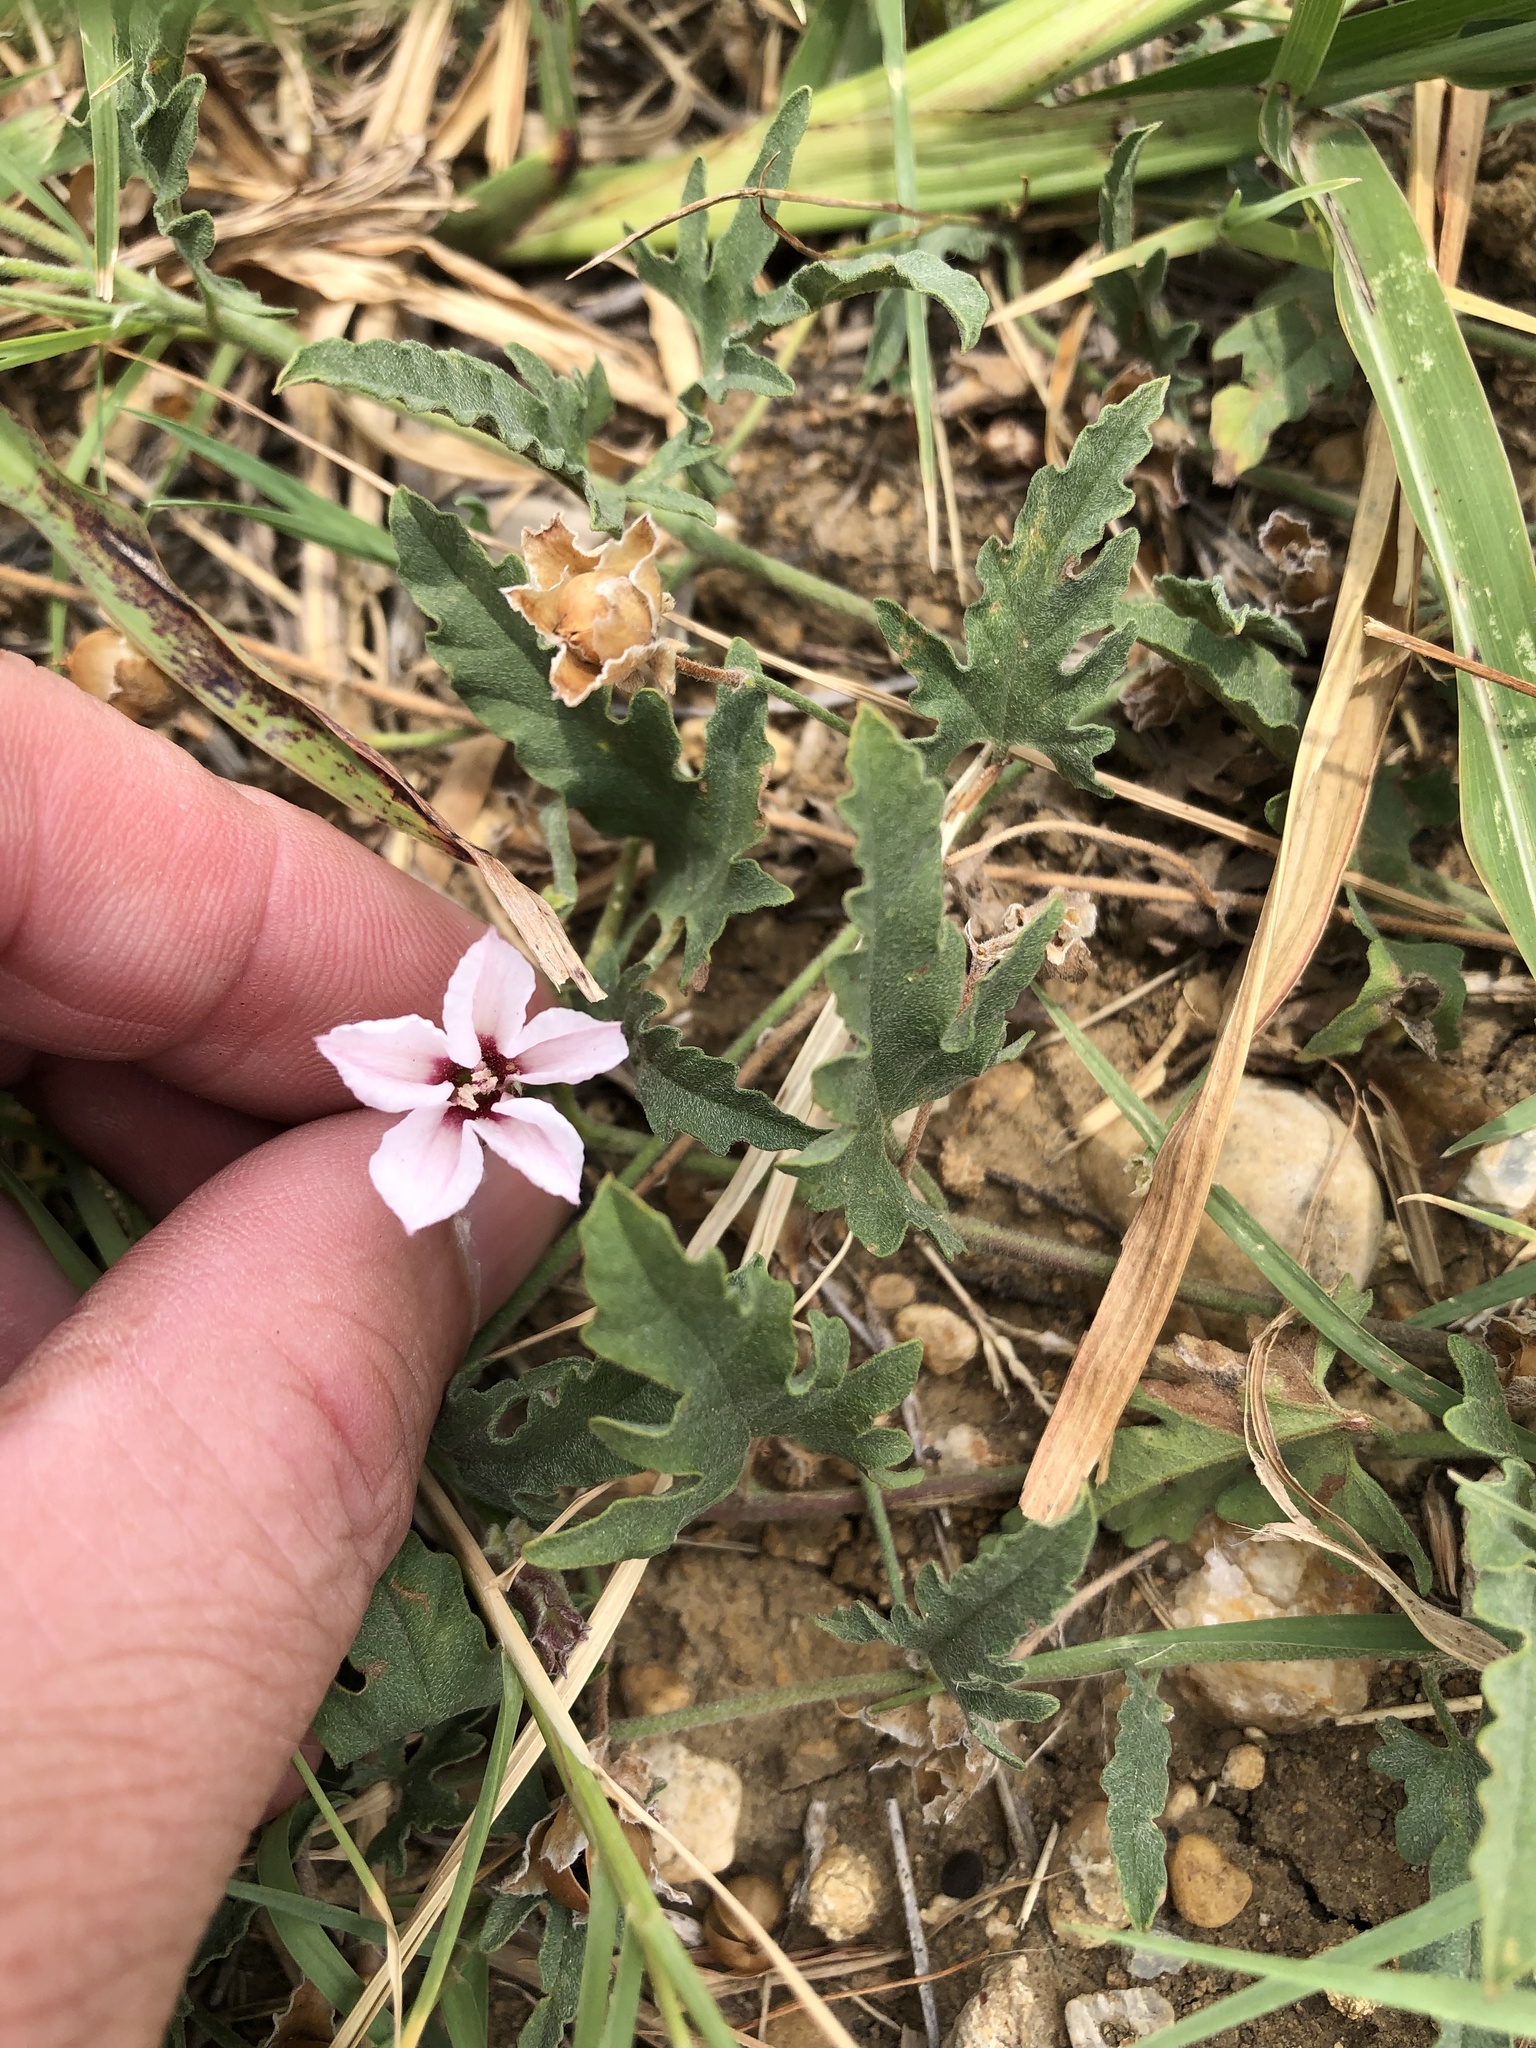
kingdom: Plantae
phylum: Tracheophyta
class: Magnoliopsida
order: Solanales
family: Convolvulaceae
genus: Convolvulus
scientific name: Convolvulus equitans
